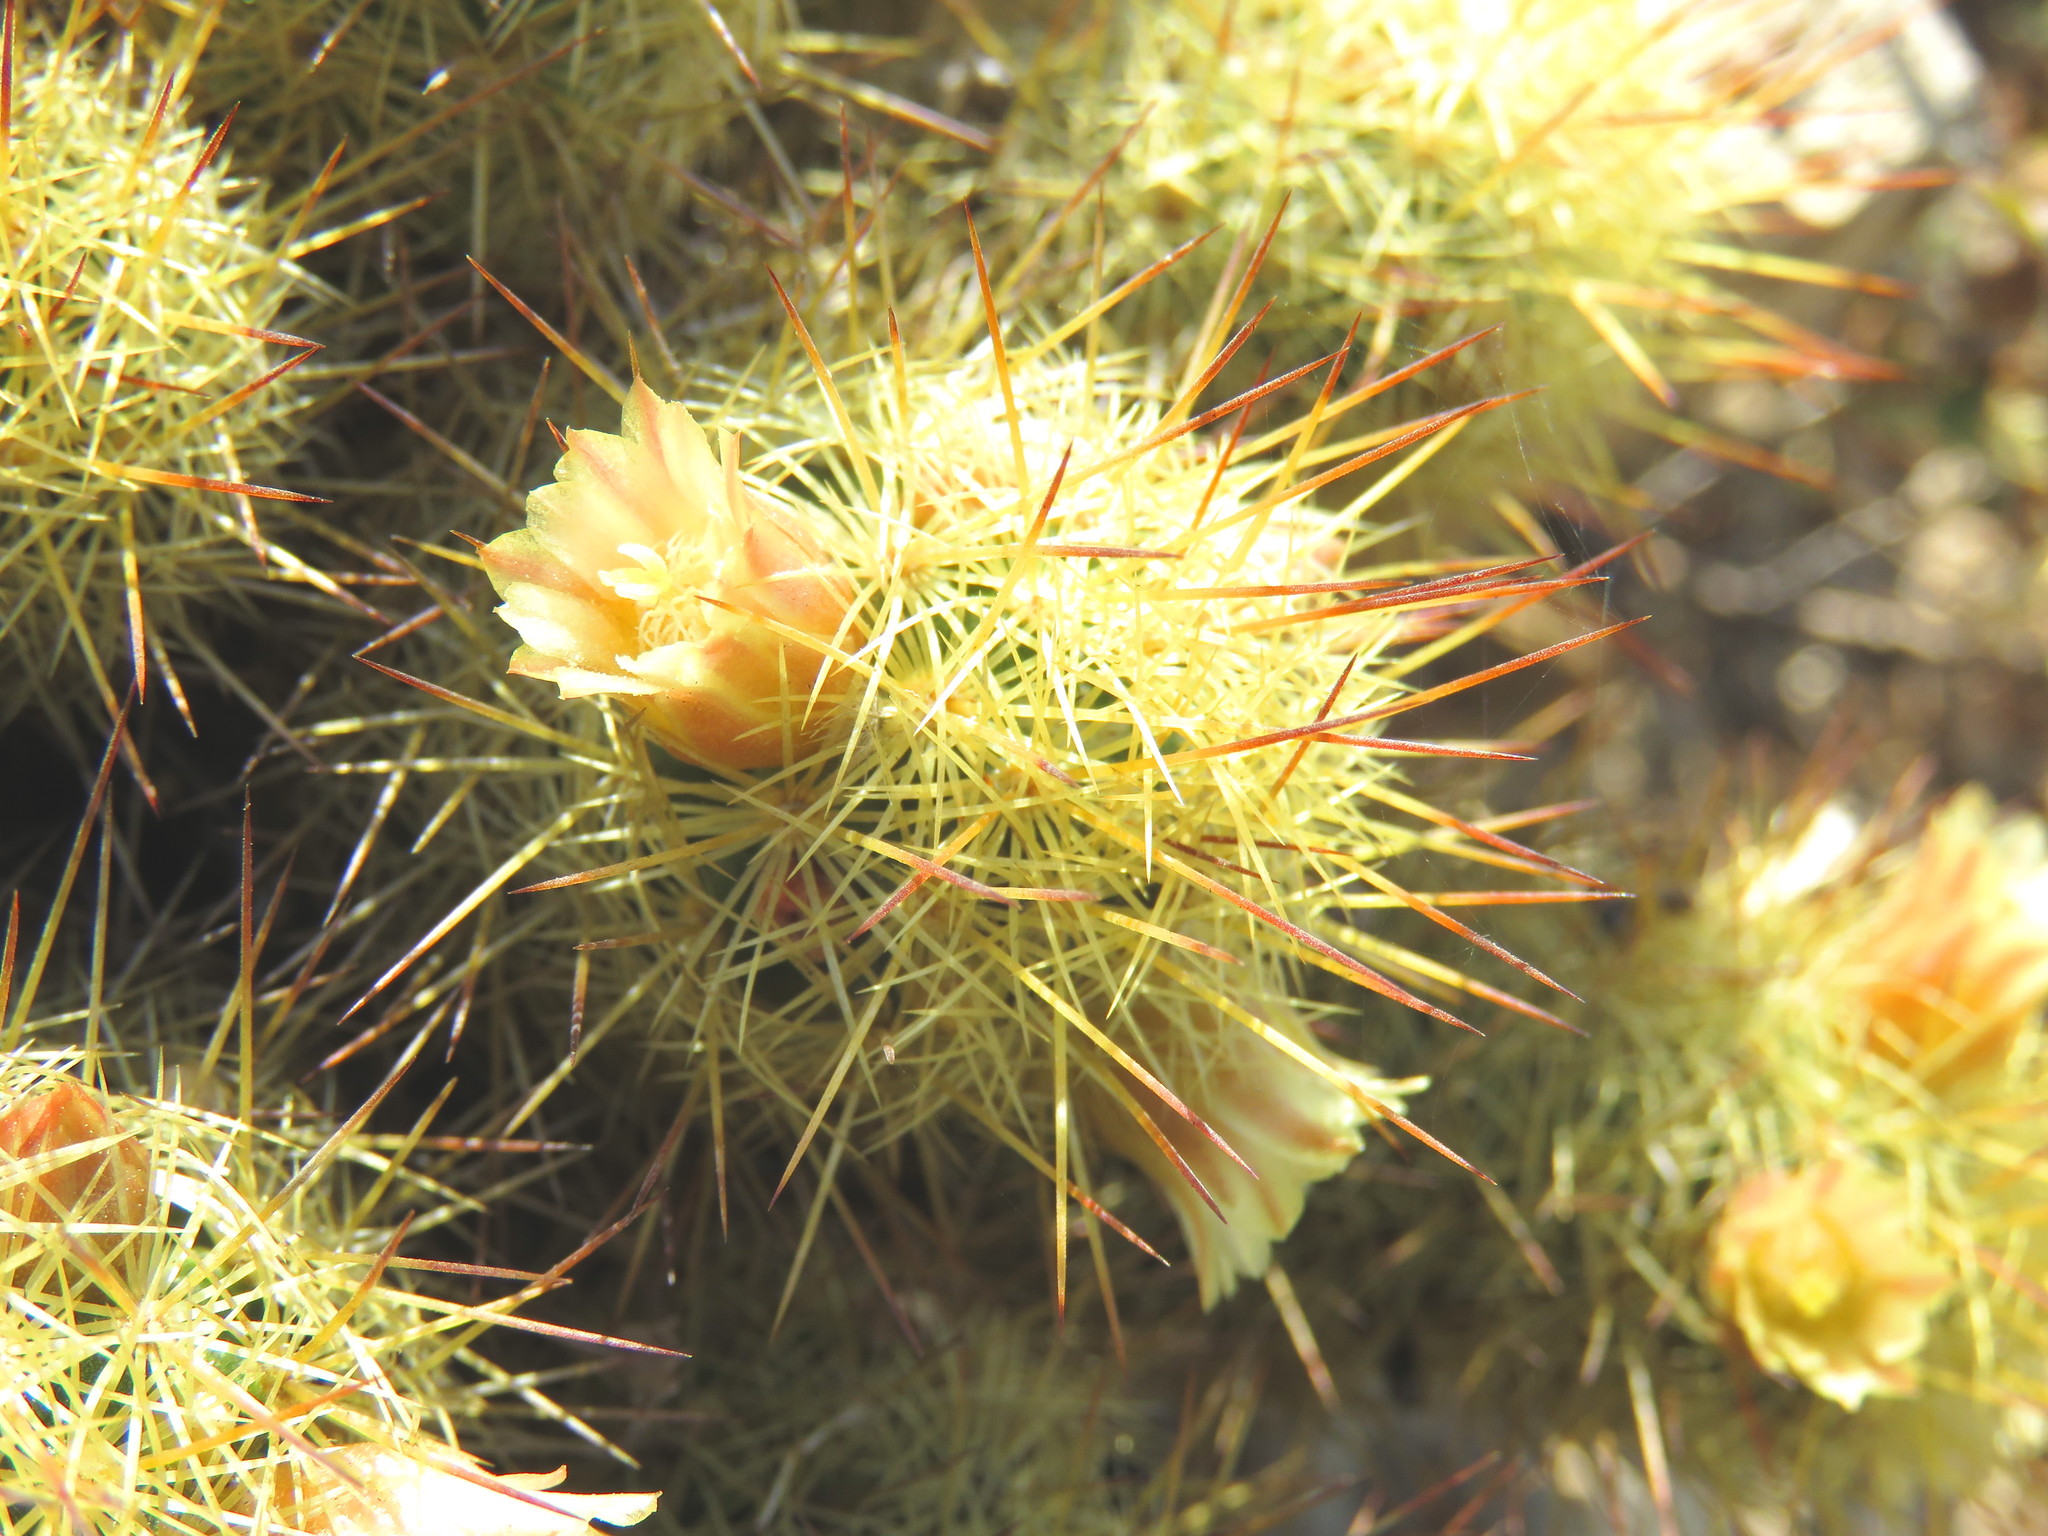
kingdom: Plantae
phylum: Tracheophyta
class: Magnoliopsida
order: Caryophyllales
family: Cactaceae
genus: Mammillaria
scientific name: Mammillaria elongata
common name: Golden star cactus
